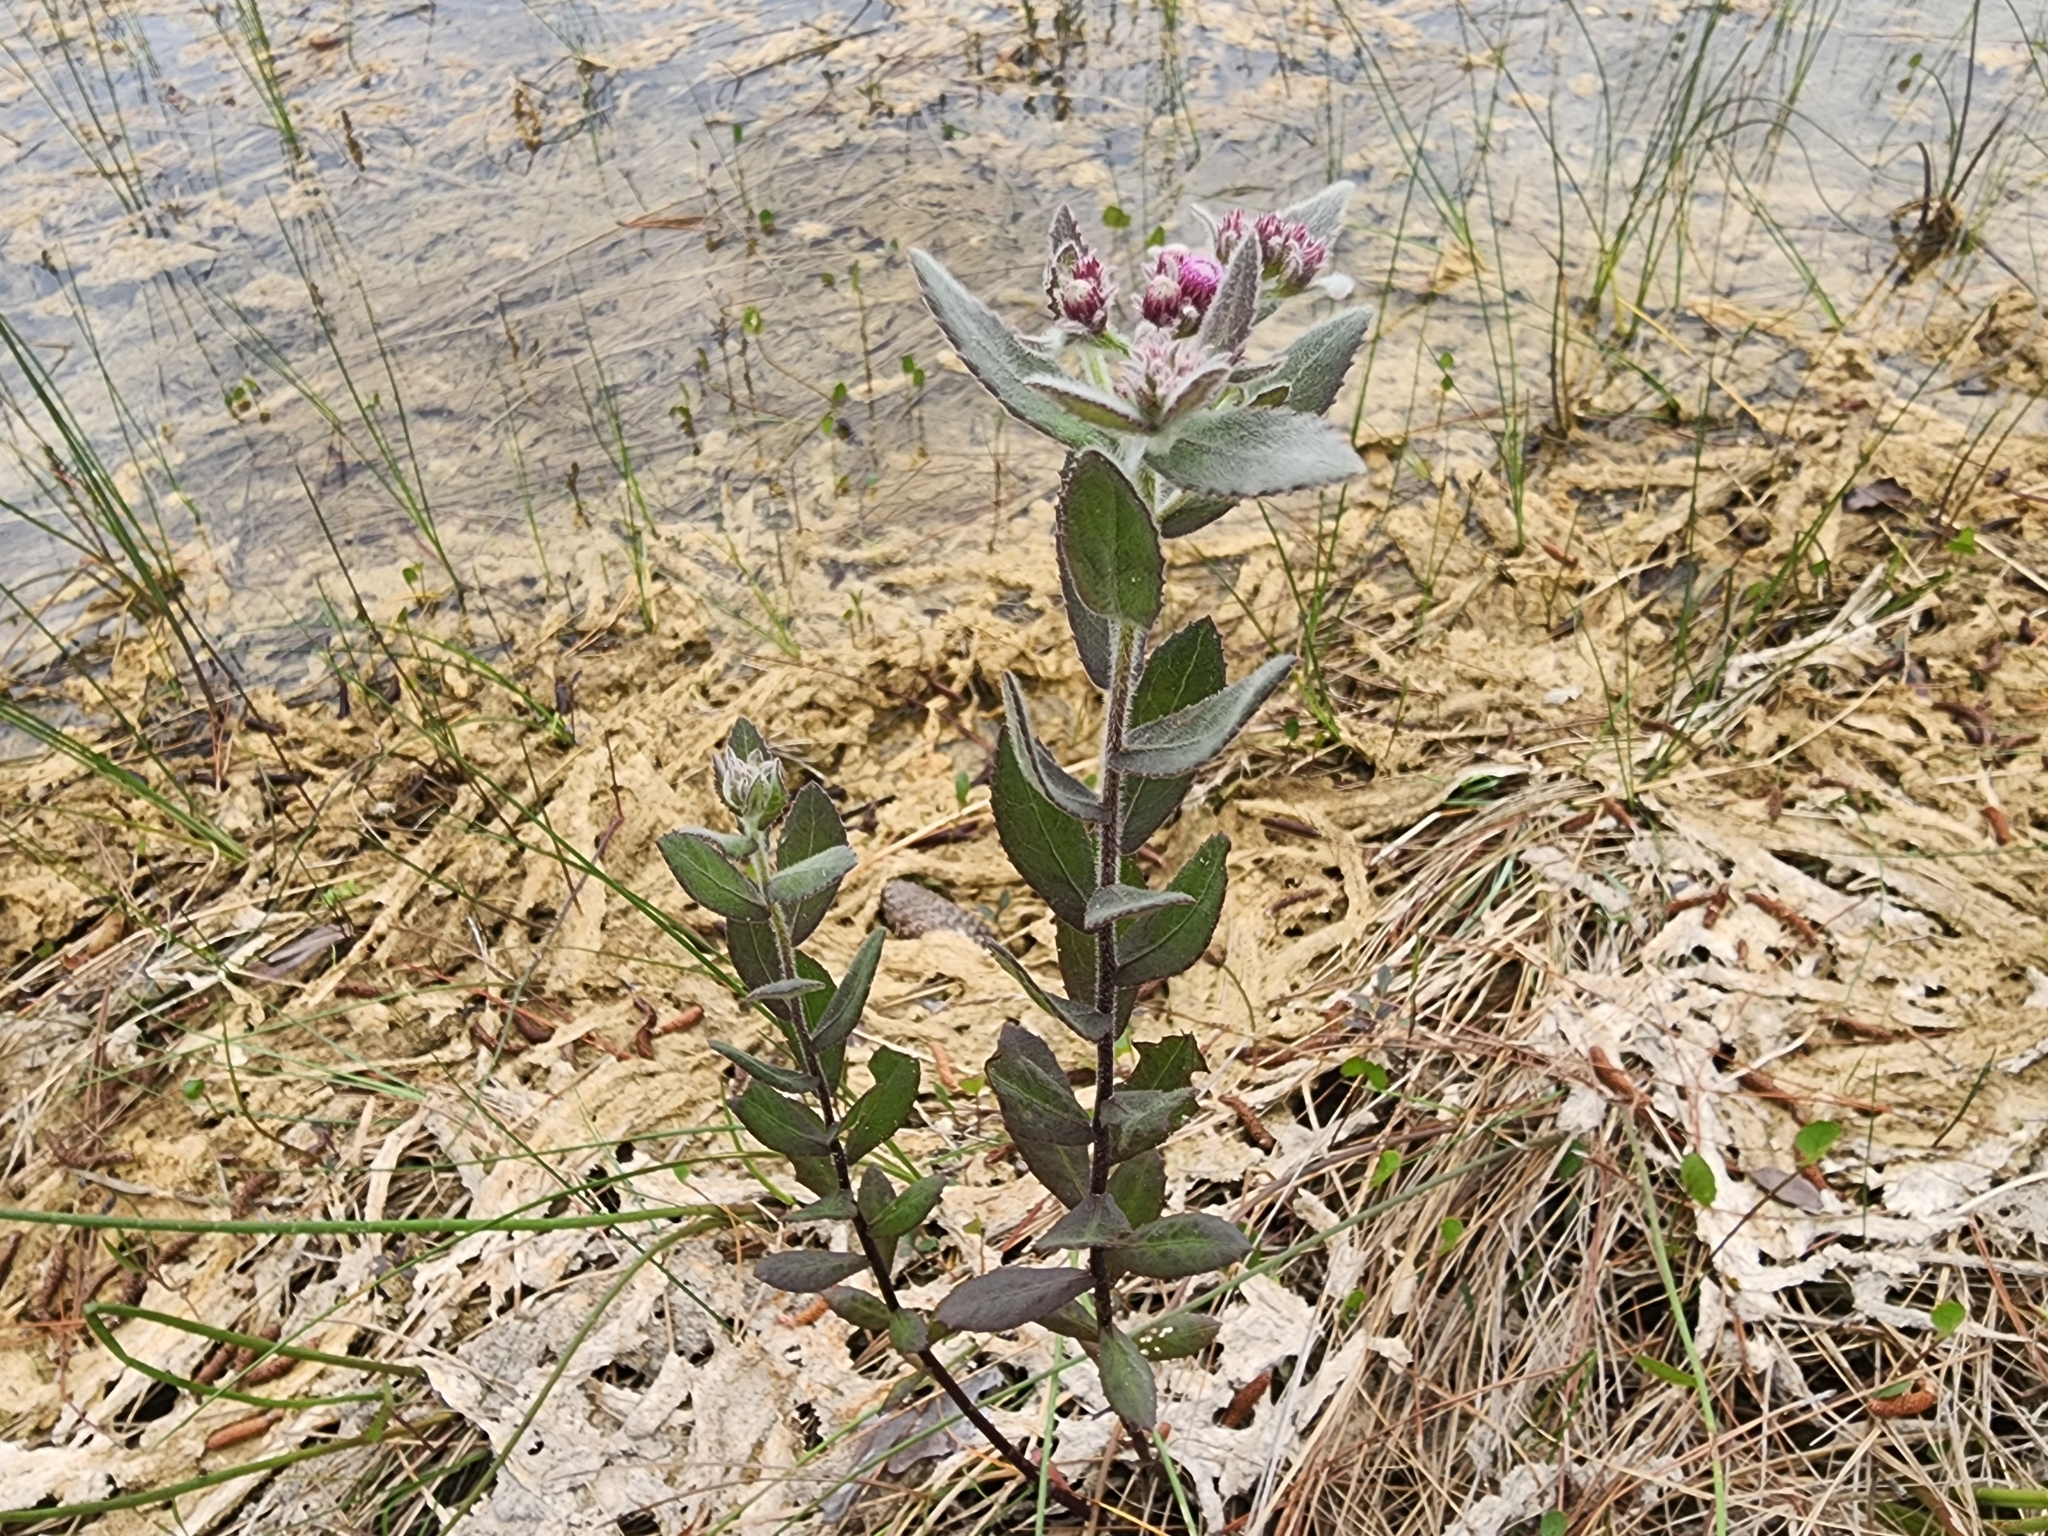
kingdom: Plantae
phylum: Tracheophyta
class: Magnoliopsida
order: Asterales
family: Asteraceae
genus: Pluchea
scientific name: Pluchea baccharis
